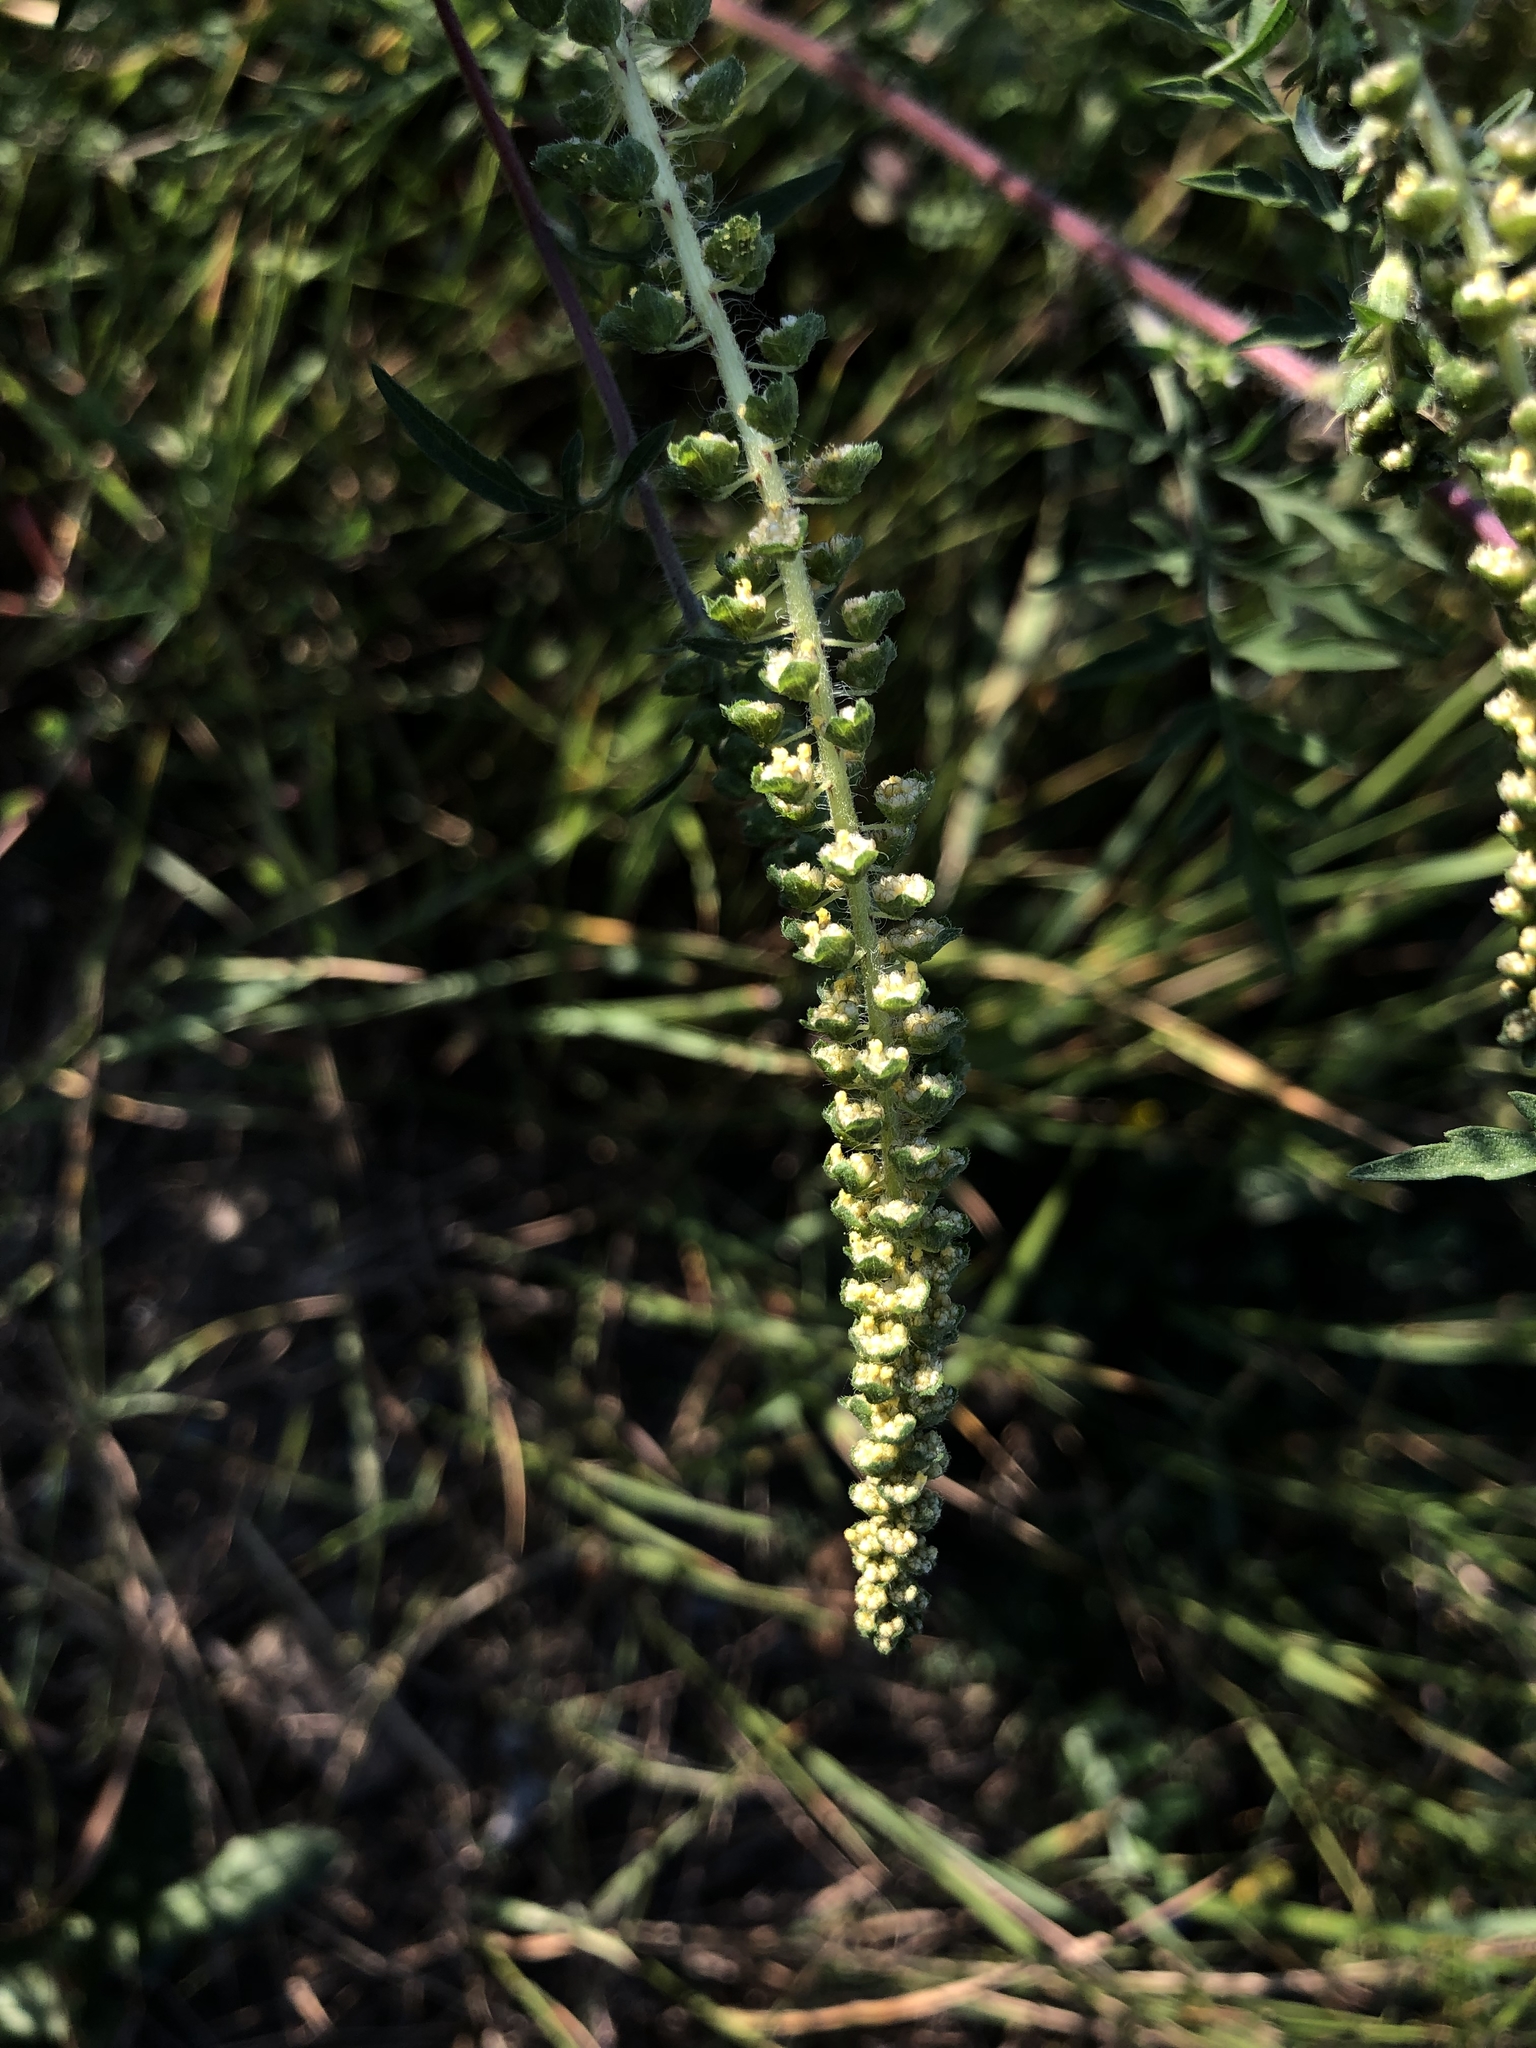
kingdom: Plantae
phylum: Tracheophyta
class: Magnoliopsida
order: Asterales
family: Asteraceae
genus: Ambrosia
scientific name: Ambrosia artemisiifolia
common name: Annual ragweed
